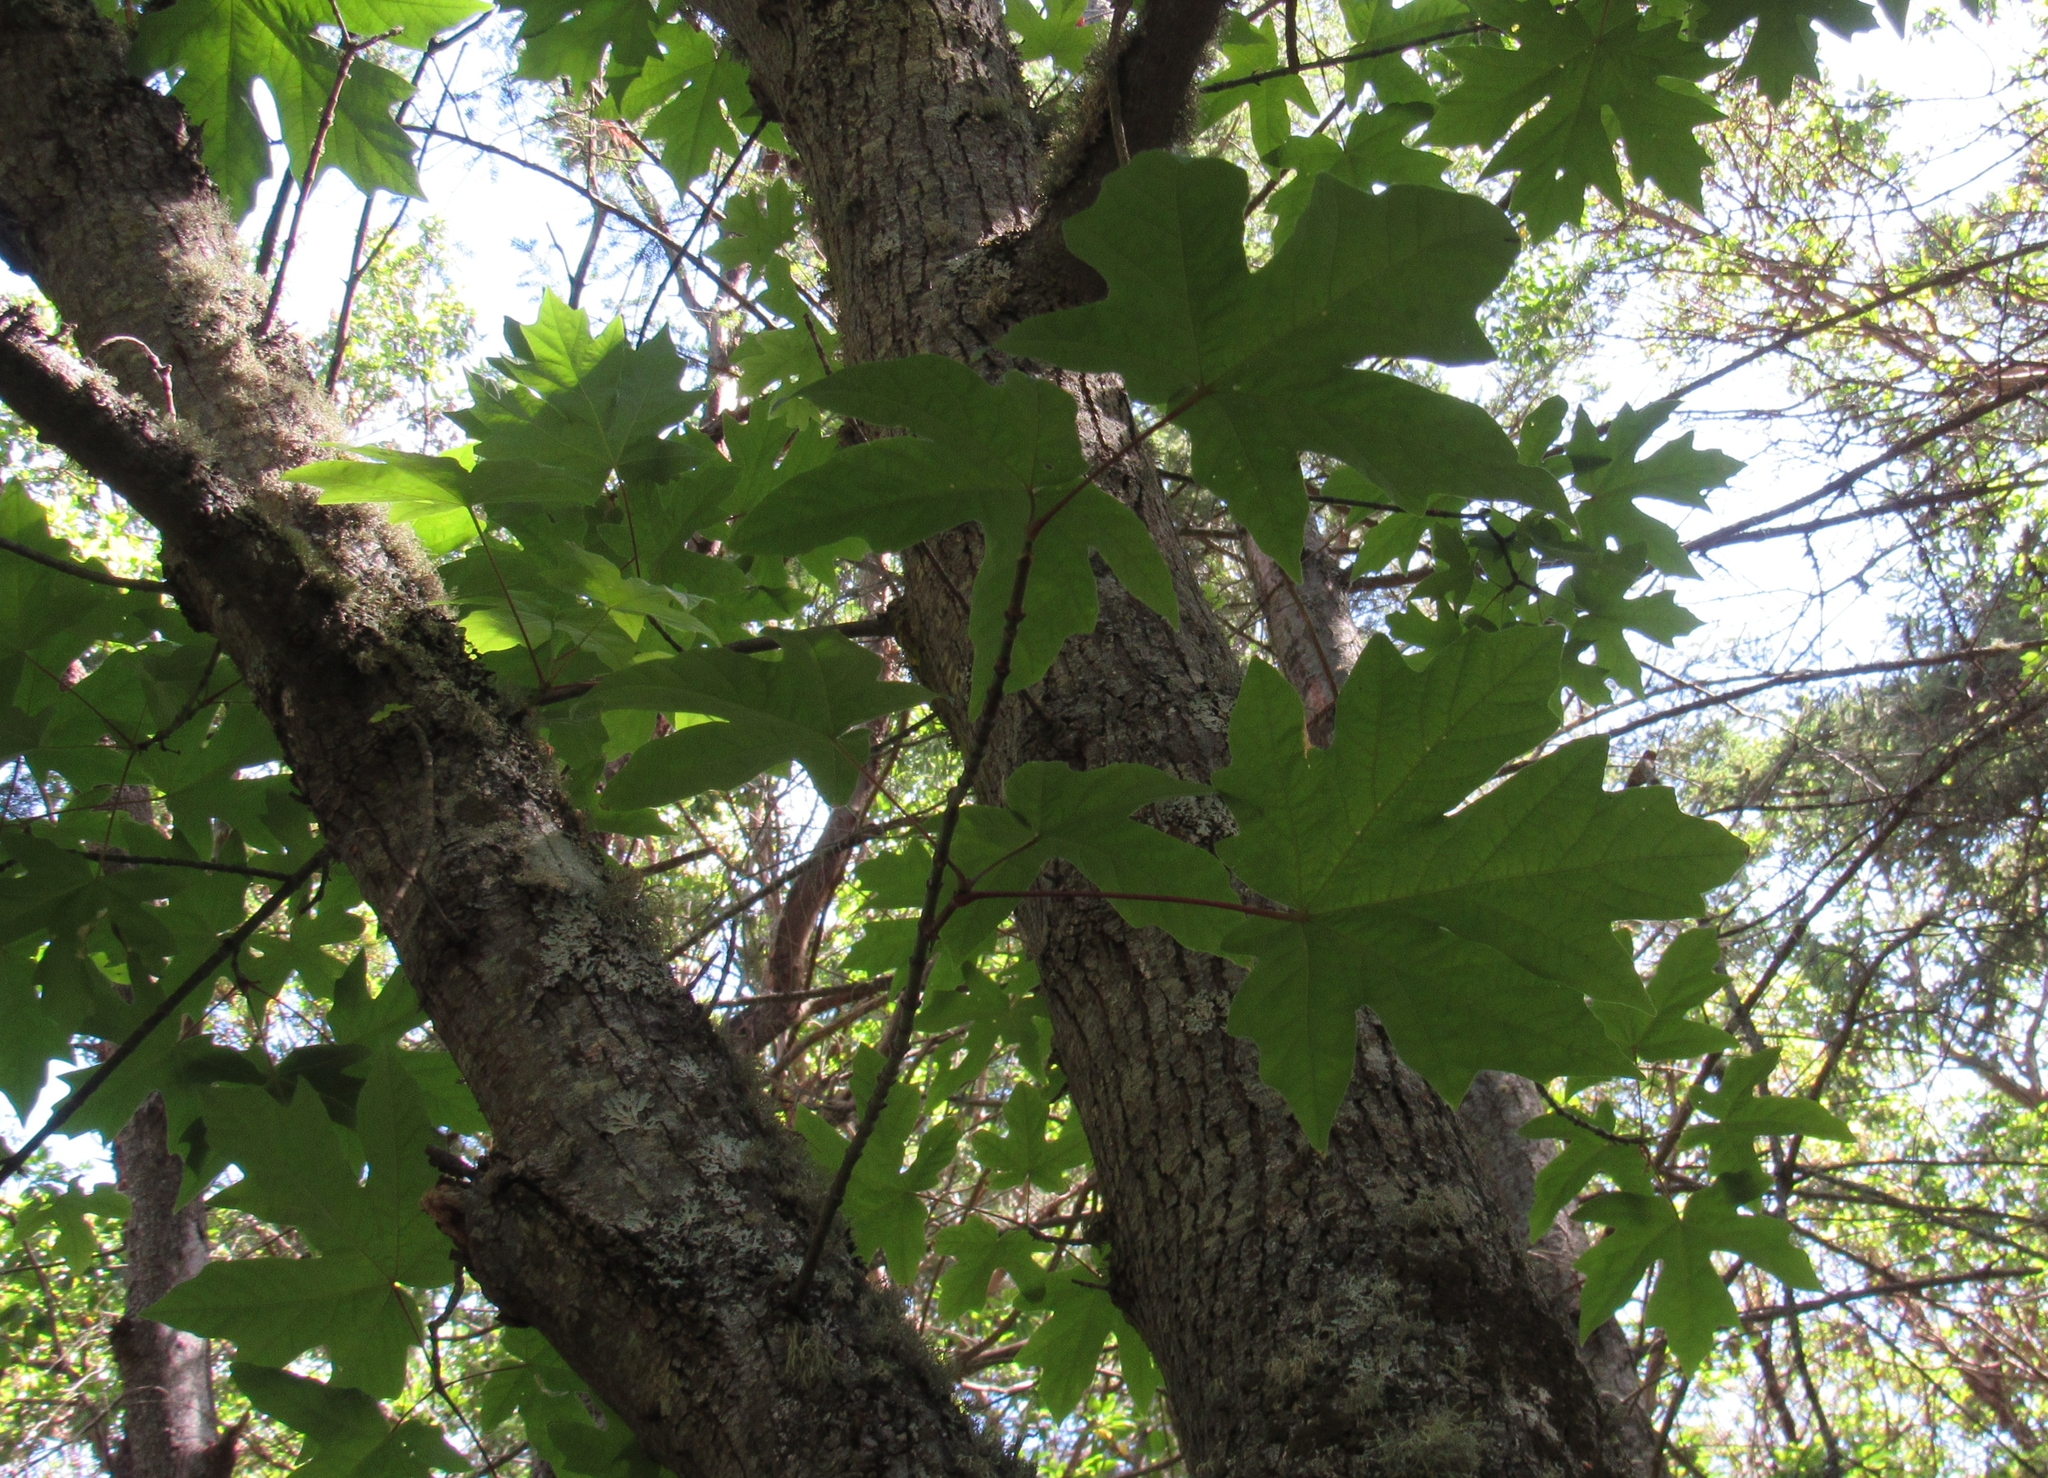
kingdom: Plantae
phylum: Tracheophyta
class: Magnoliopsida
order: Sapindales
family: Sapindaceae
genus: Acer
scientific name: Acer macrophyllum
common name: Oregon maple
